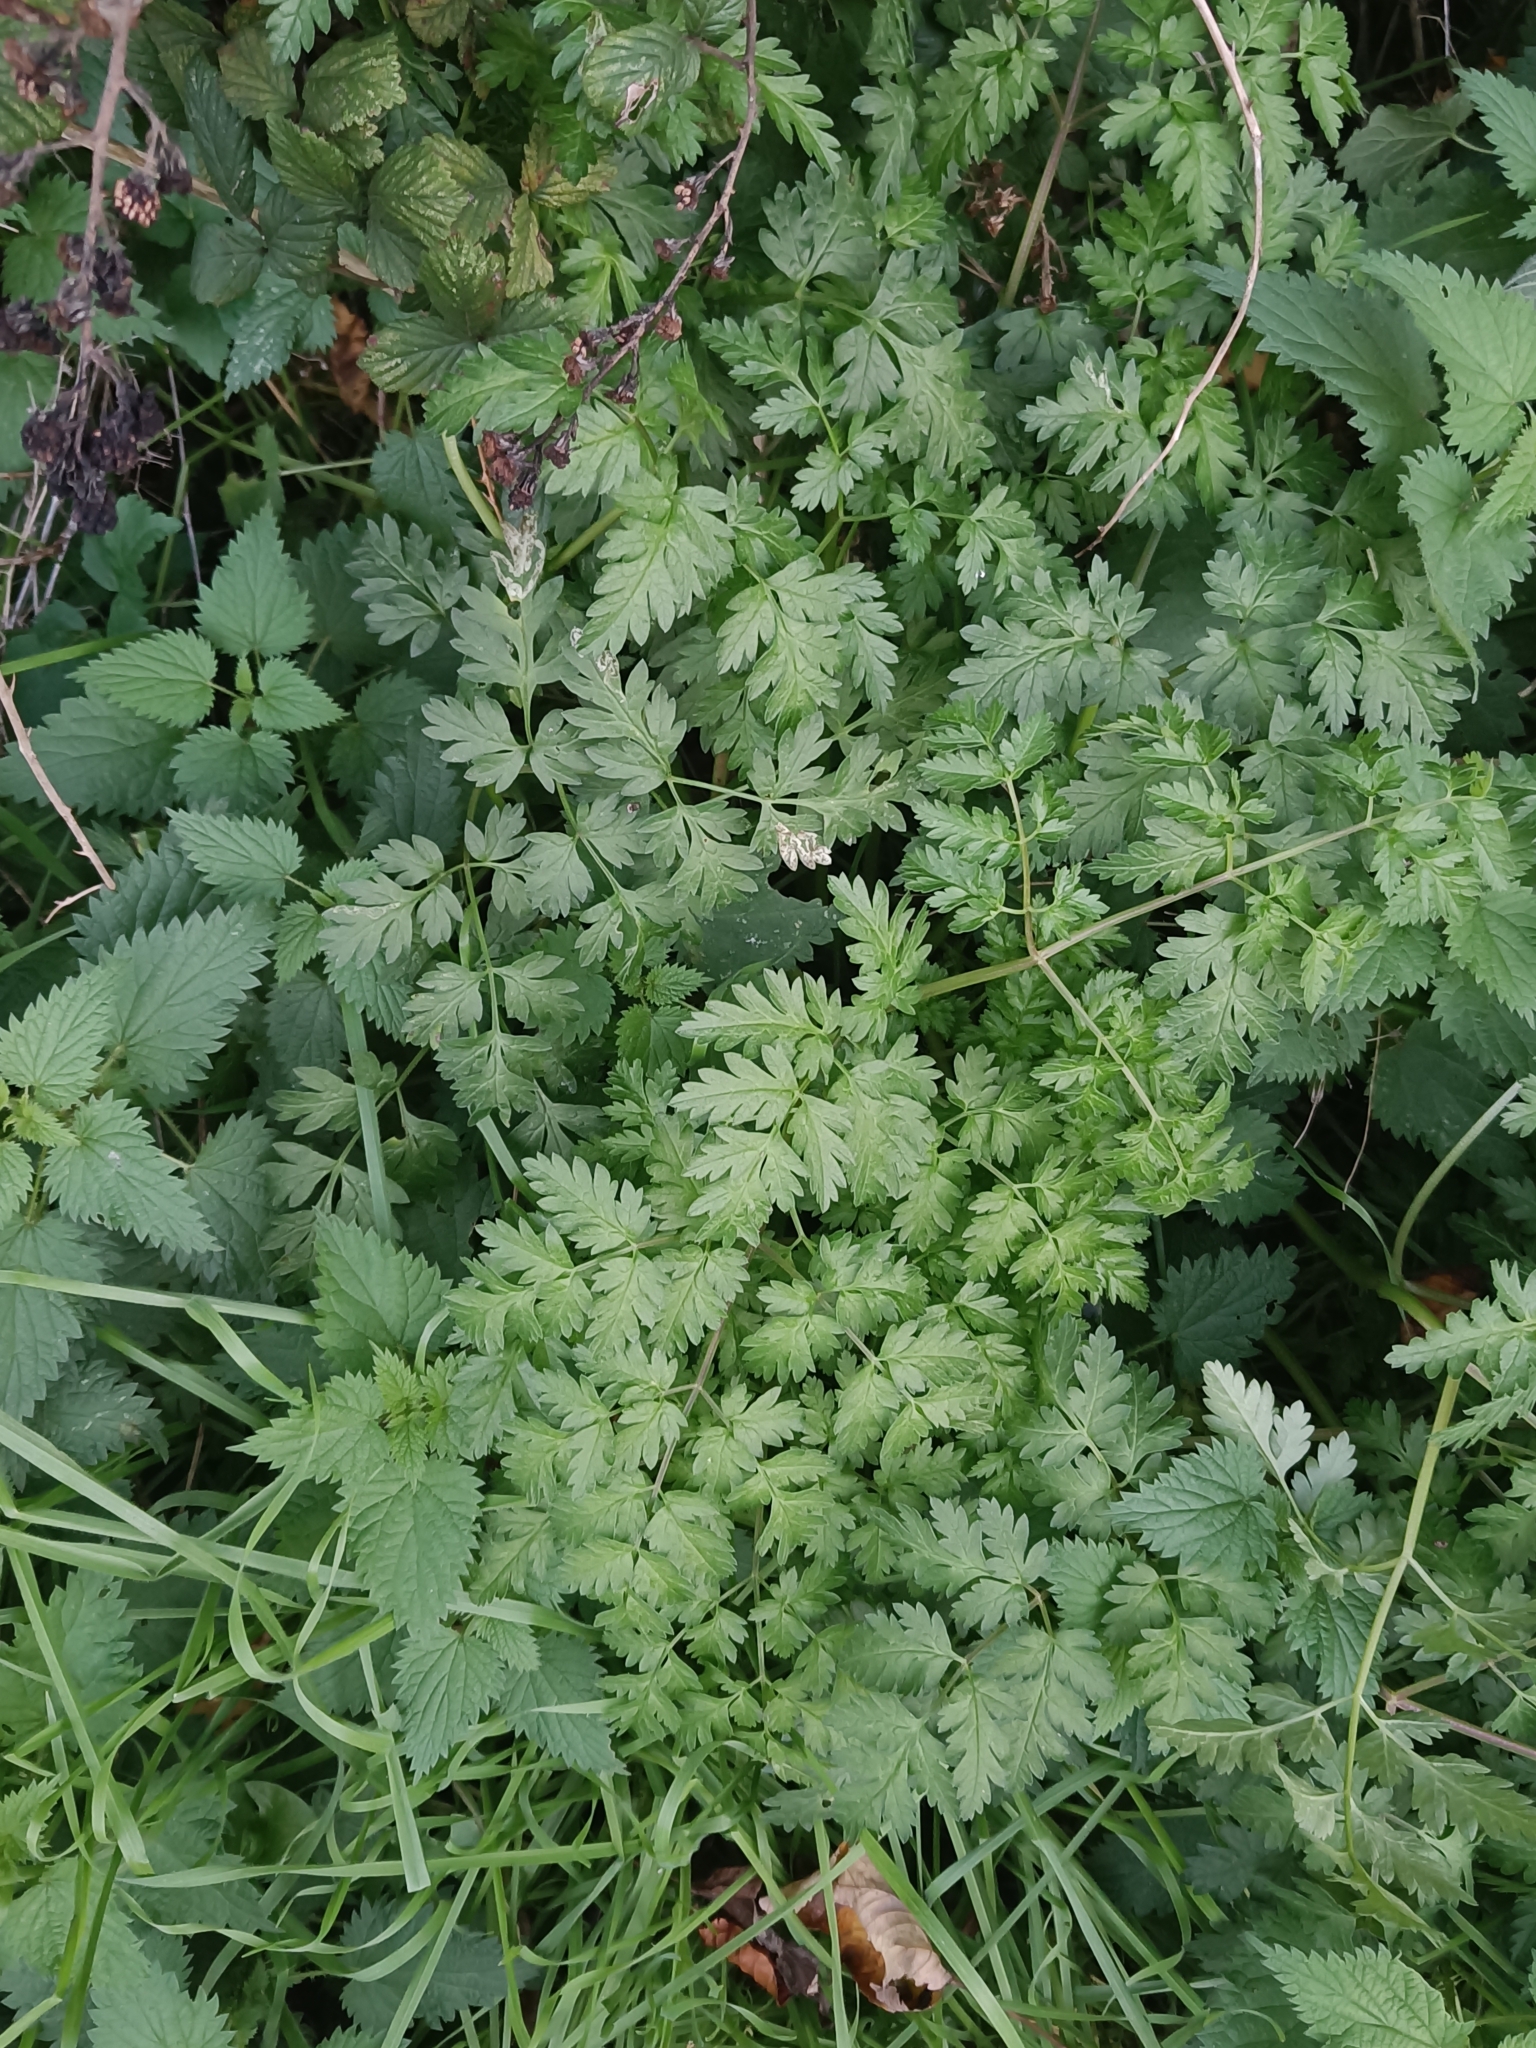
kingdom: Plantae
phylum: Tracheophyta
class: Magnoliopsida
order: Apiales
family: Apiaceae
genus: Anthriscus
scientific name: Anthriscus sylvestris
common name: Cow parsley
